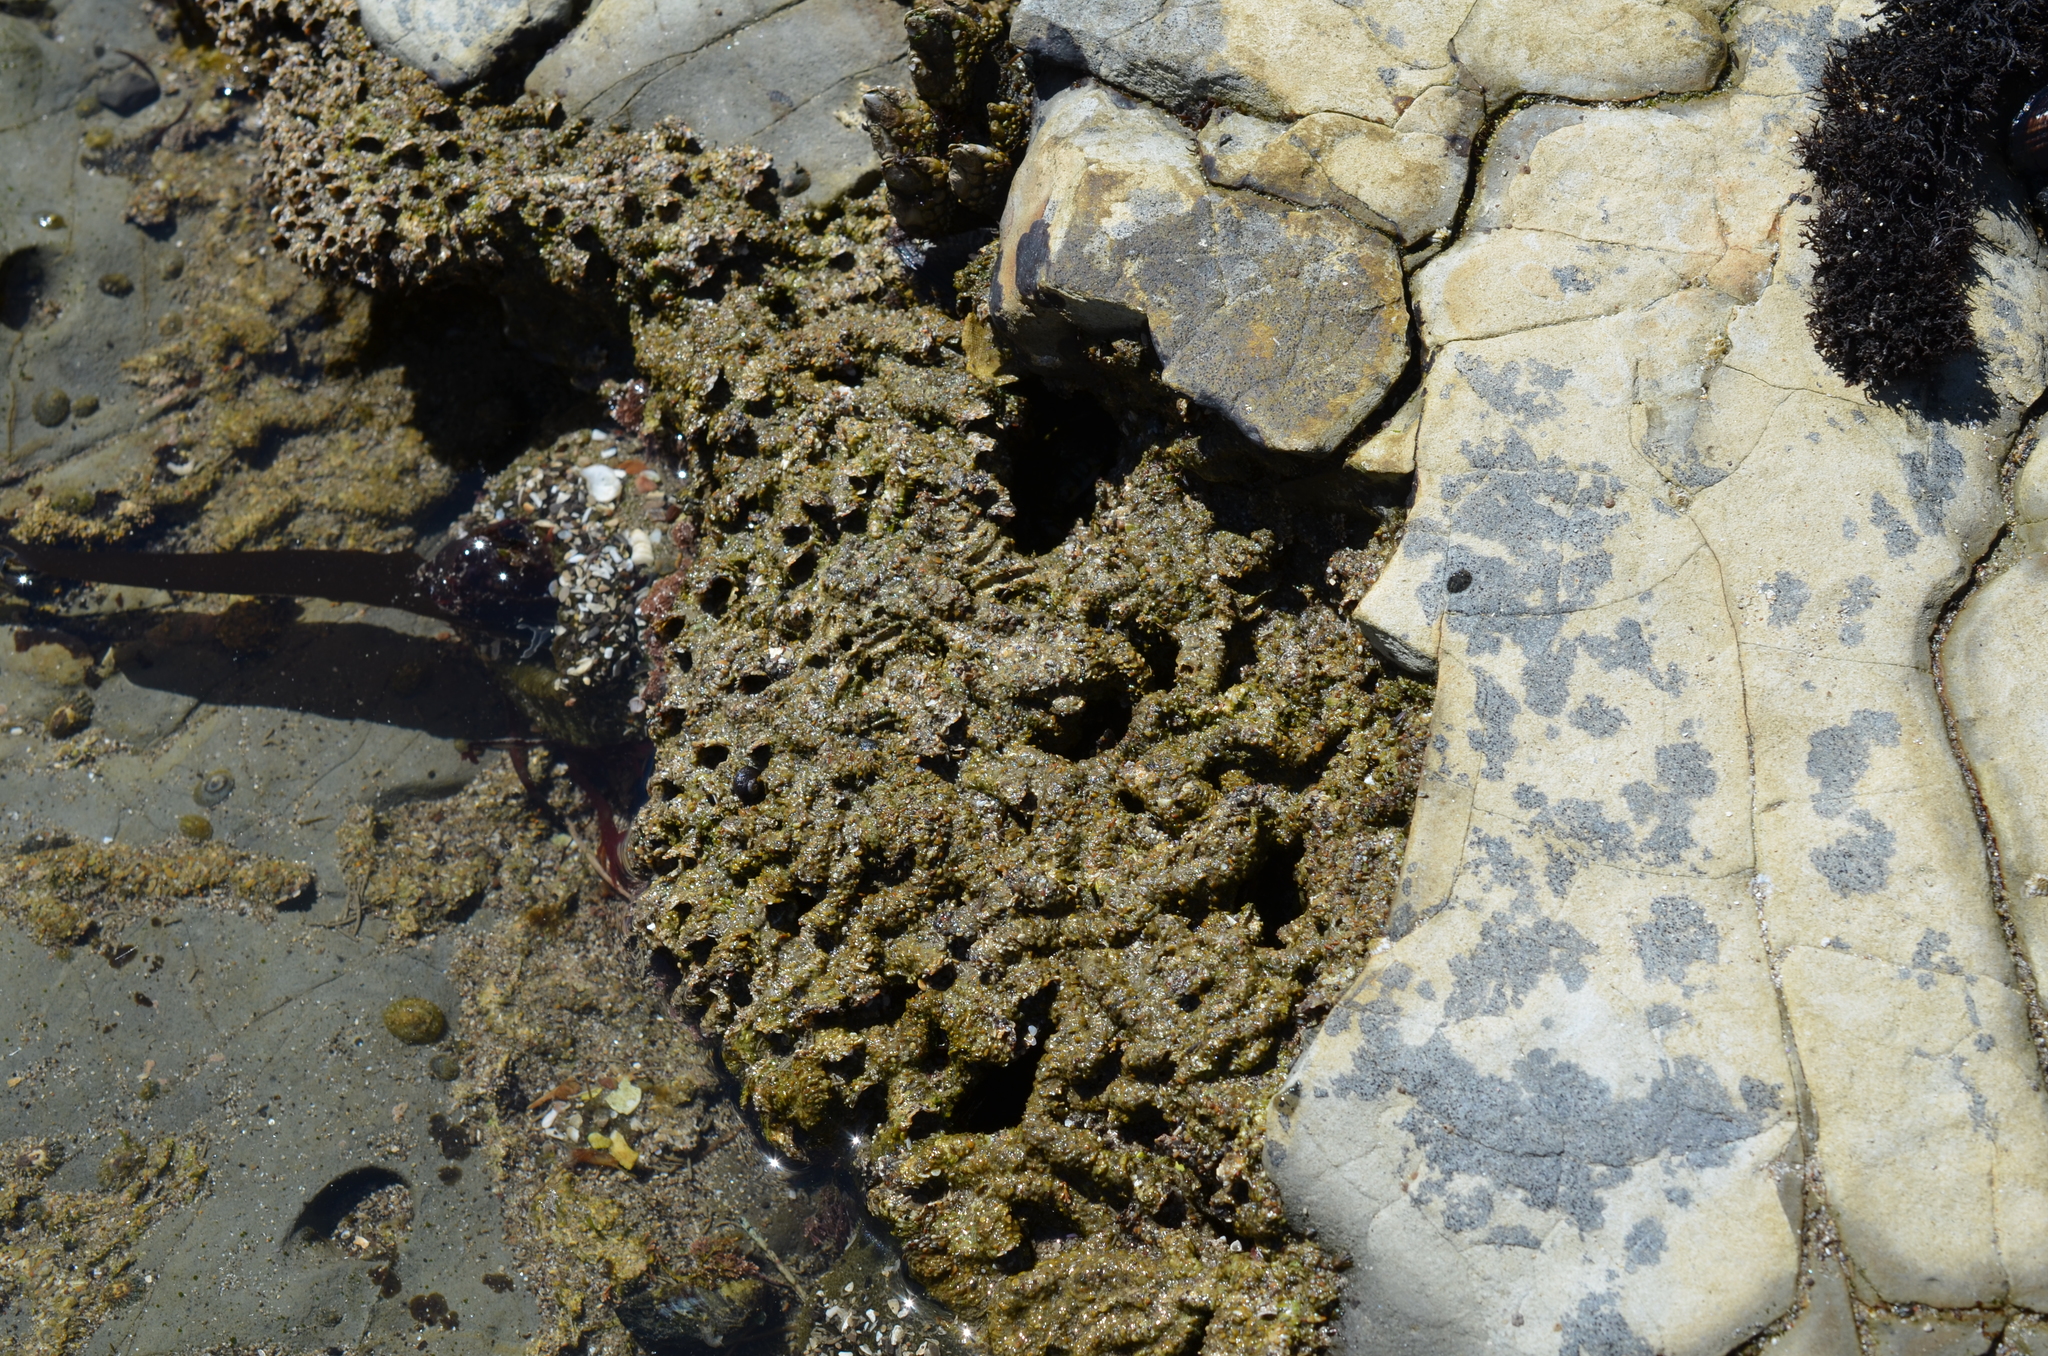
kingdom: Animalia
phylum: Annelida
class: Polychaeta
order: Sabellida
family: Sabellariidae
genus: Phragmatopoma
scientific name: Phragmatopoma californica
